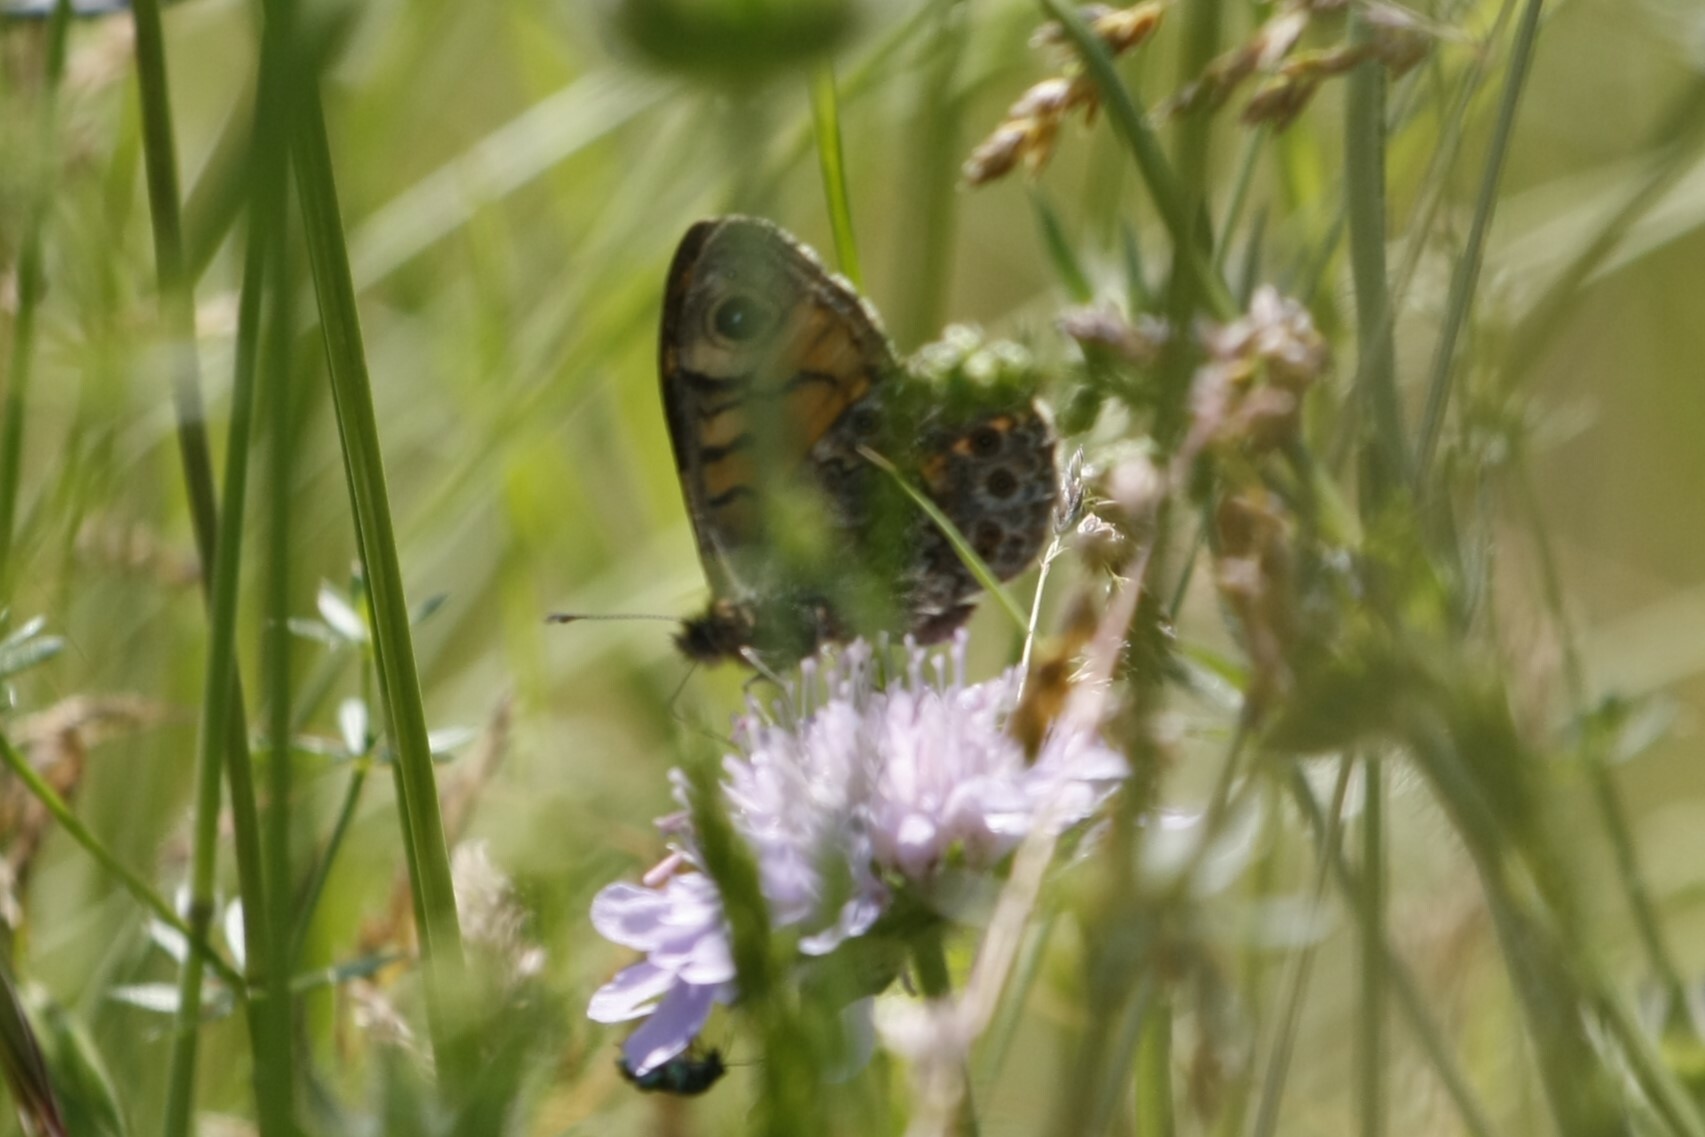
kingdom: Animalia
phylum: Arthropoda
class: Insecta
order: Lepidoptera
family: Nymphalidae
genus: Pararge
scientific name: Pararge Lasiommata megera
